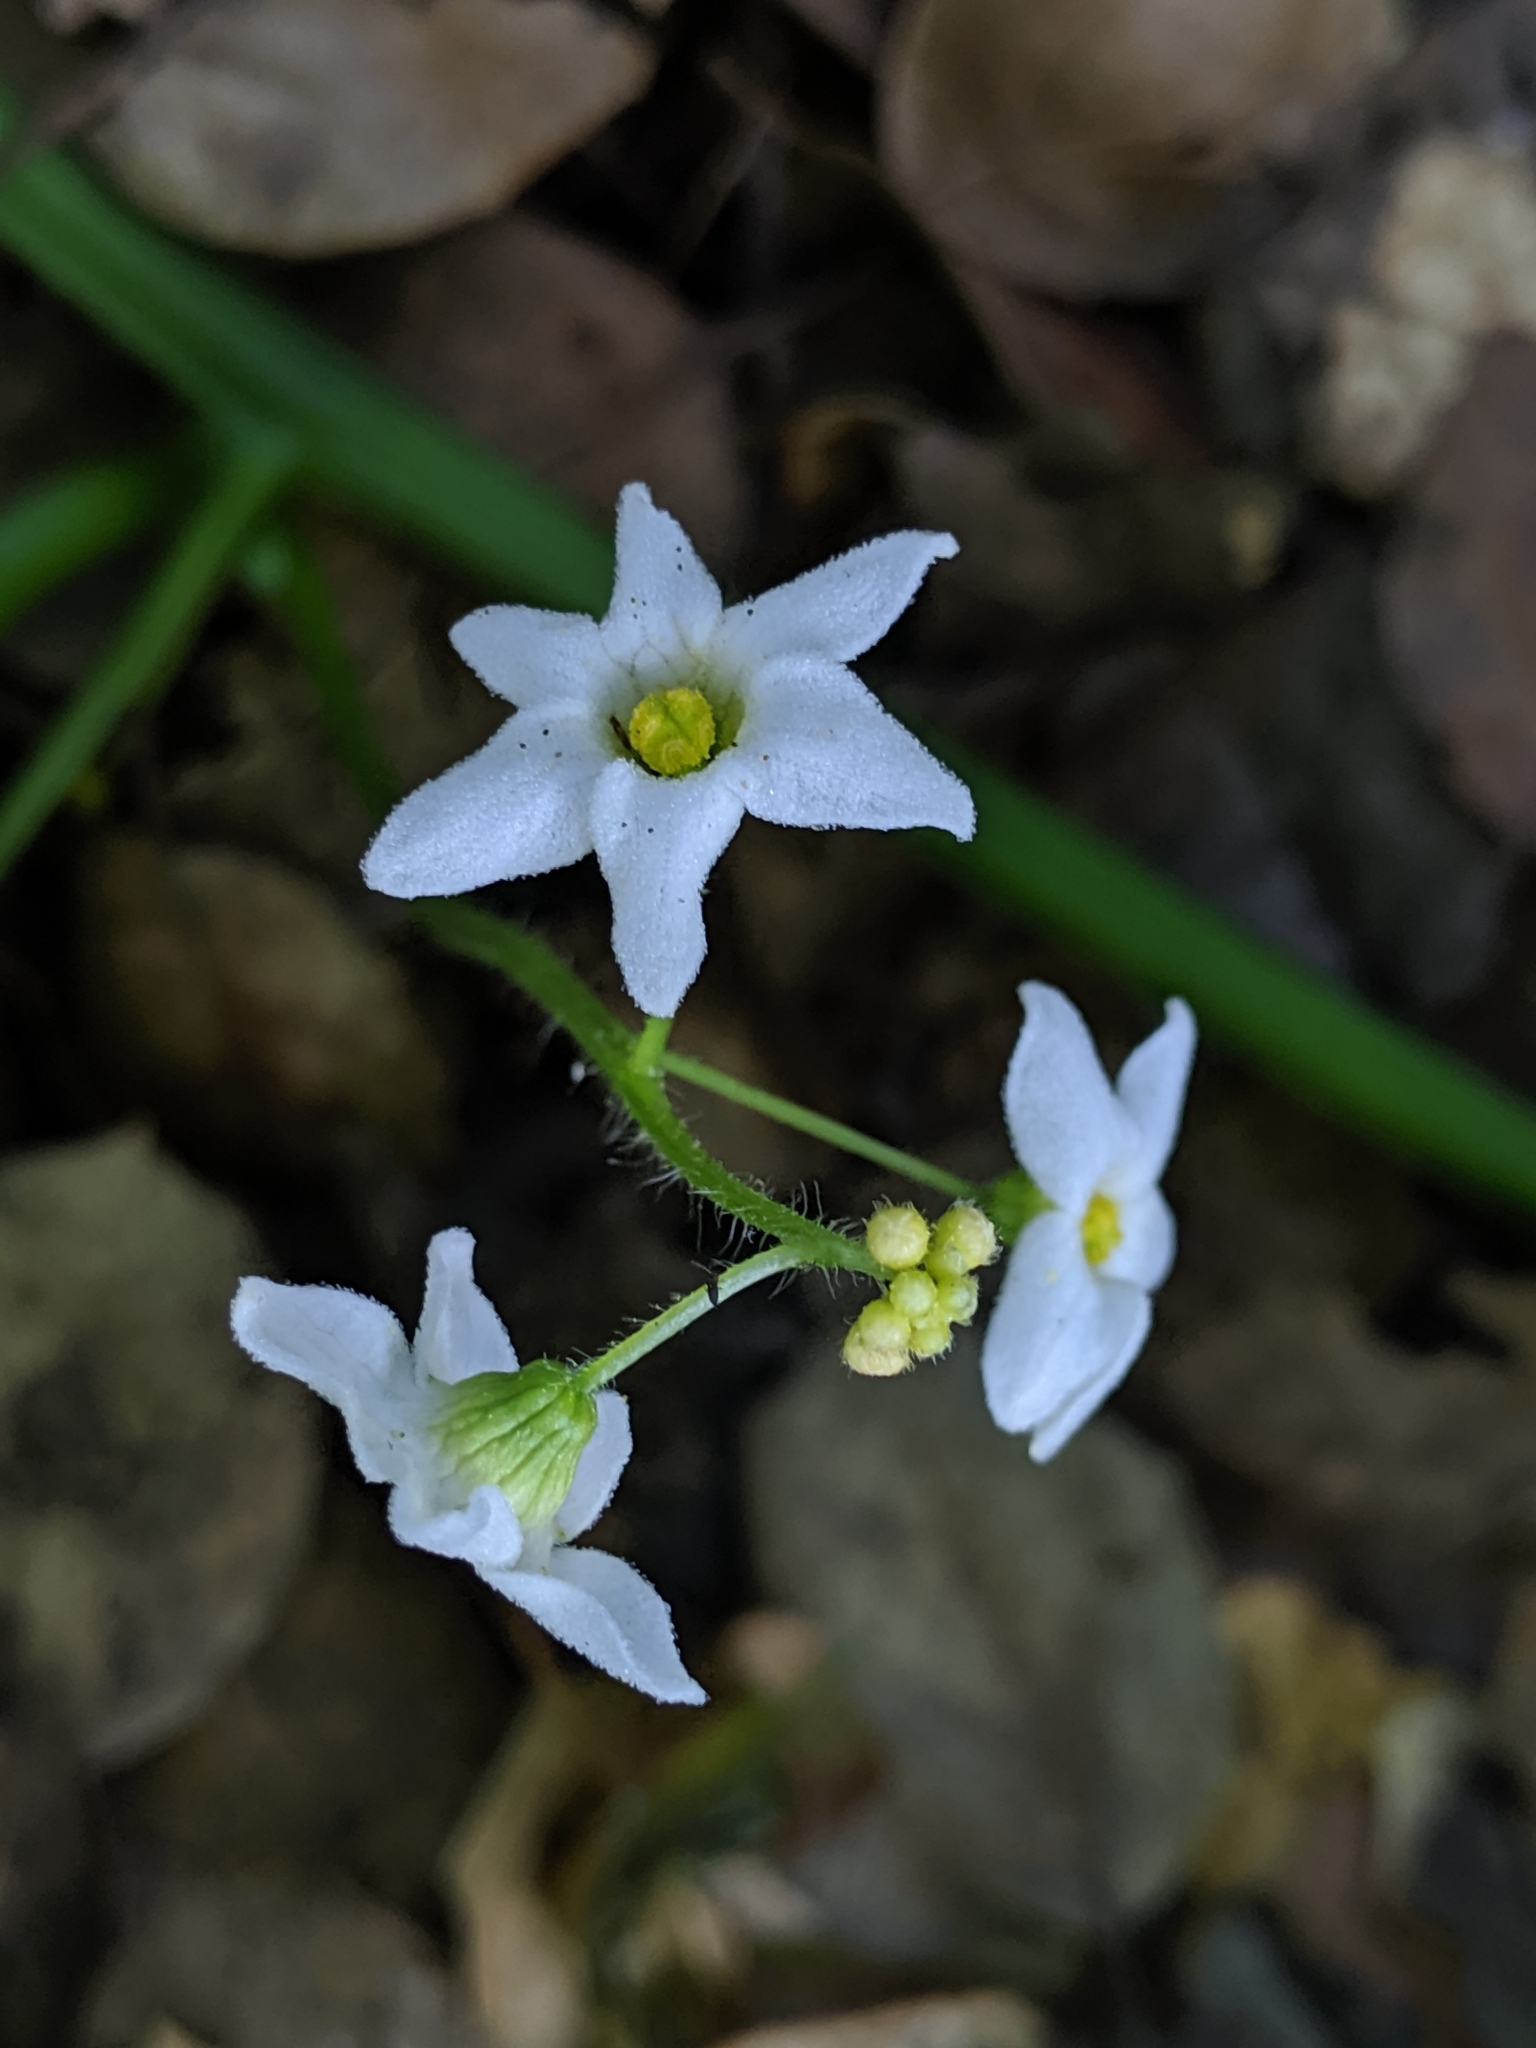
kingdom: Plantae
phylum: Tracheophyta
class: Magnoliopsida
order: Cucurbitales
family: Cucurbitaceae
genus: Marah
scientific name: Marah oregana
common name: Coastal manroot
